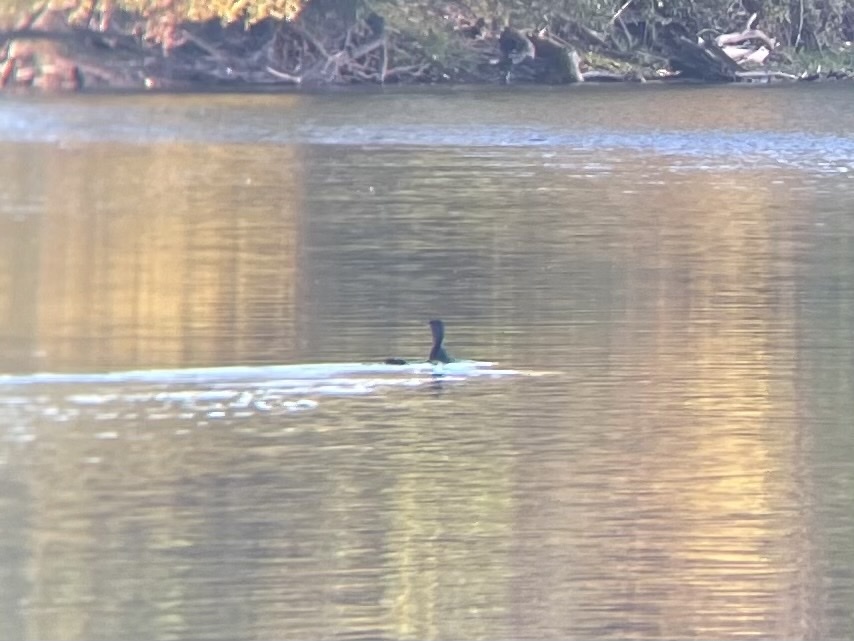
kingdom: Animalia
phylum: Chordata
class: Aves
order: Suliformes
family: Phalacrocoracidae
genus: Phalacrocorax
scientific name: Phalacrocorax auritus
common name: Double-crested cormorant
